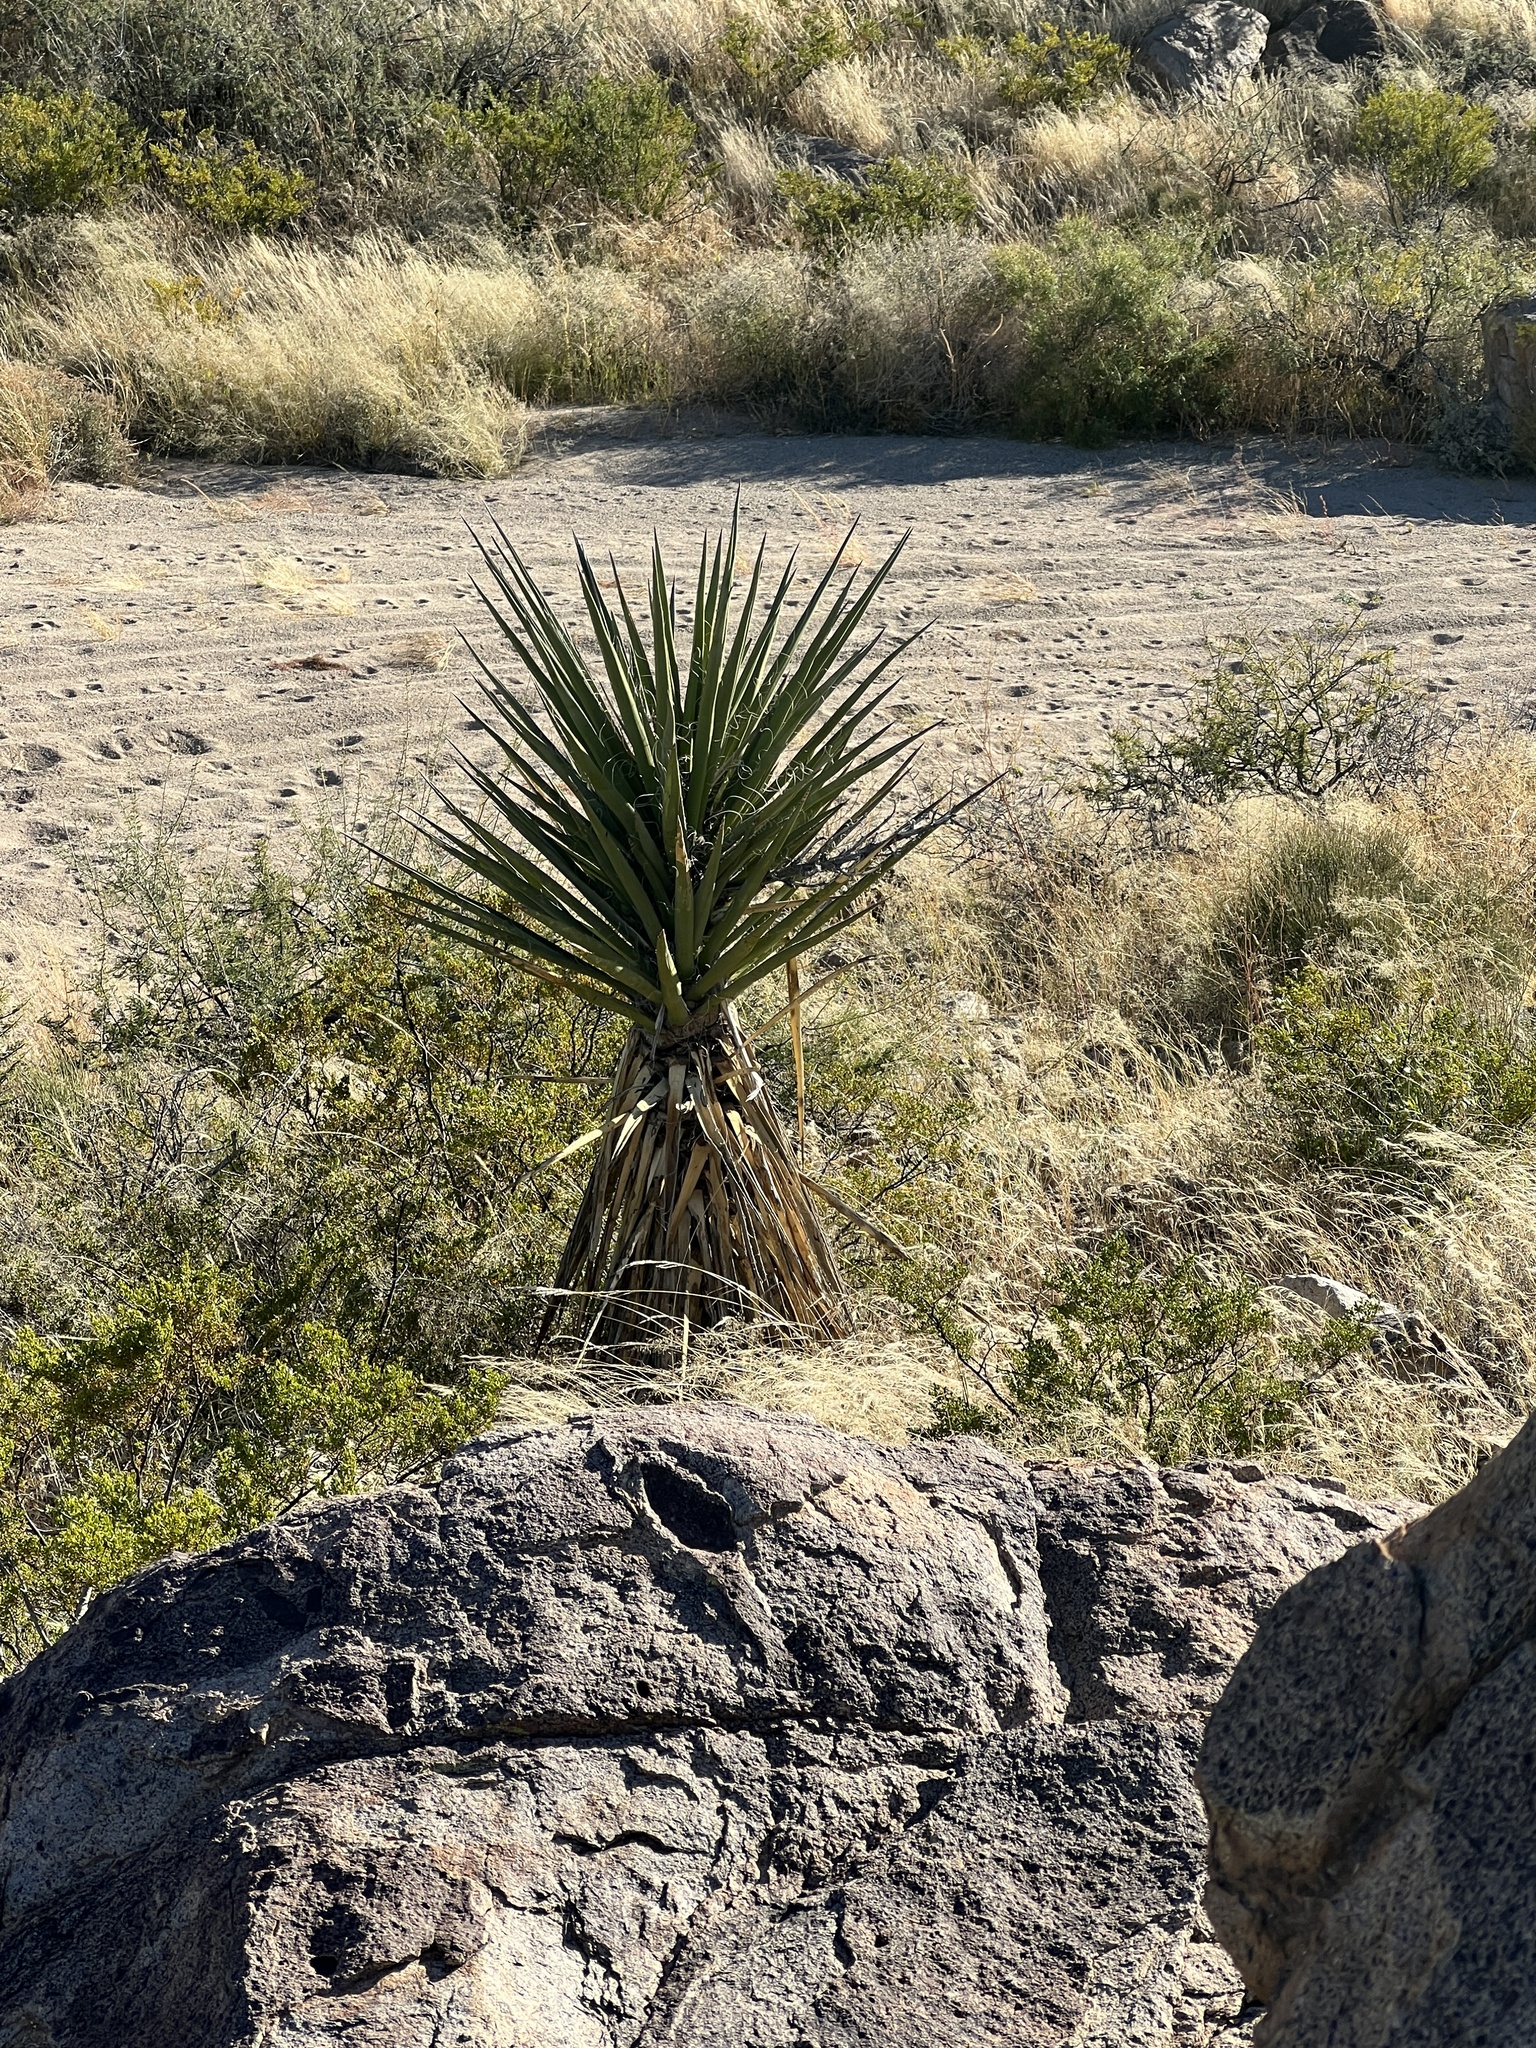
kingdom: Plantae
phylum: Tracheophyta
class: Liliopsida
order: Asparagales
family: Asparagaceae
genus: Yucca
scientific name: Yucca treculiana
